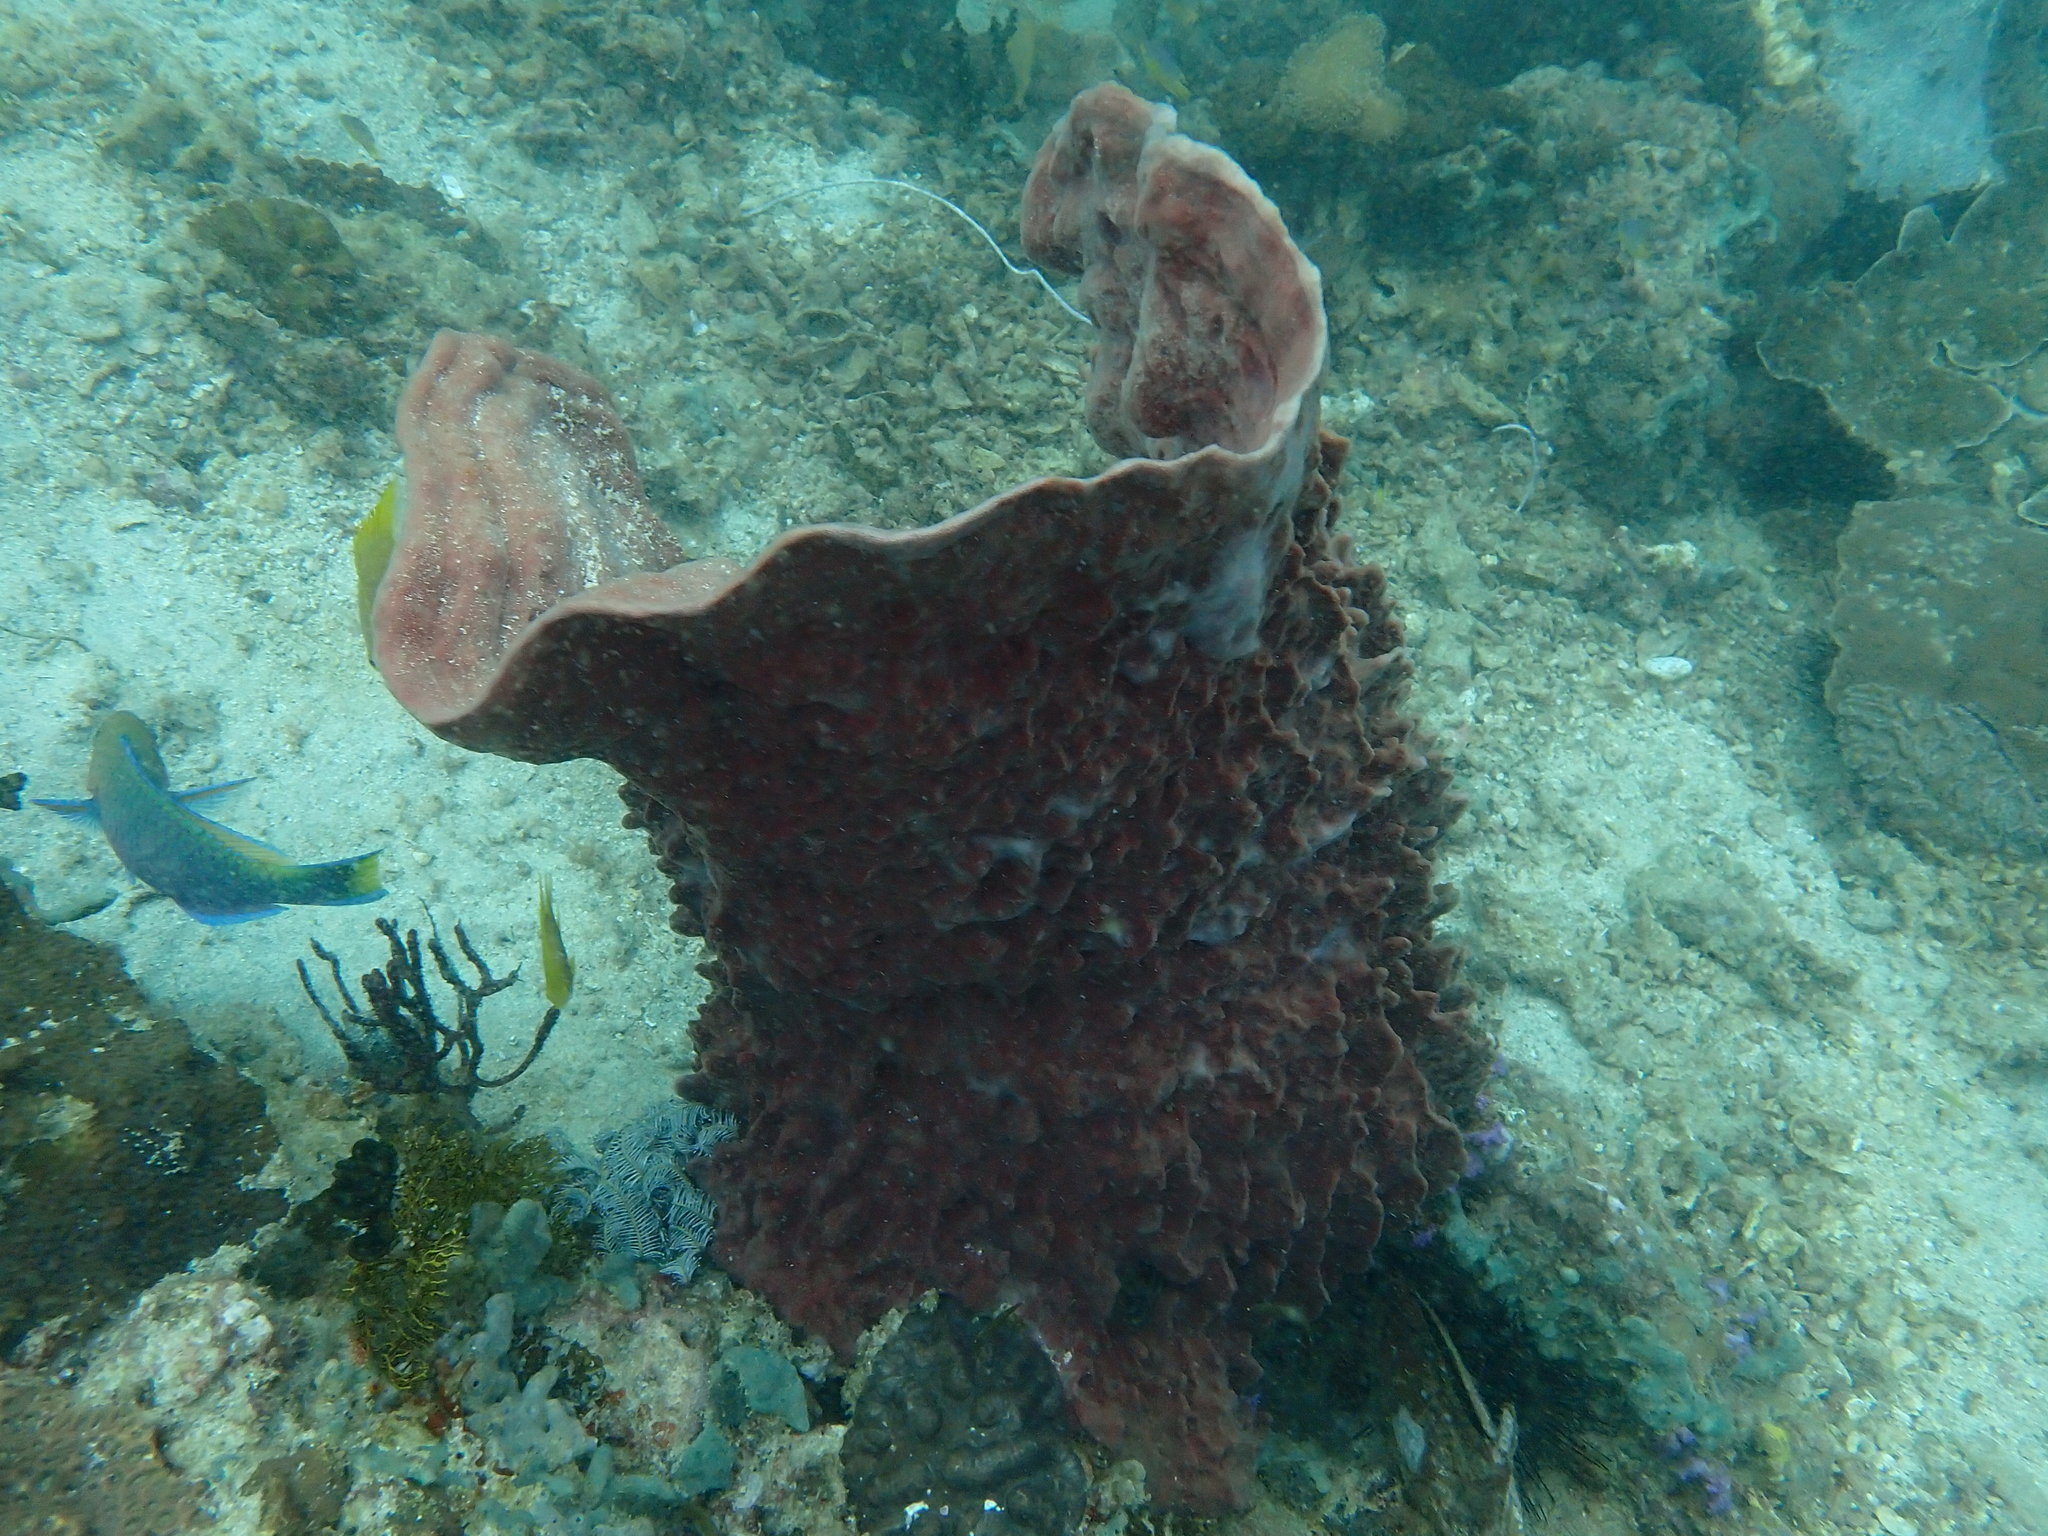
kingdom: Animalia
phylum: Porifera
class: Demospongiae
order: Haplosclerida
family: Petrosiidae
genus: Xestospongia
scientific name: Xestospongia testudinaria
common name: Barrel sponge
